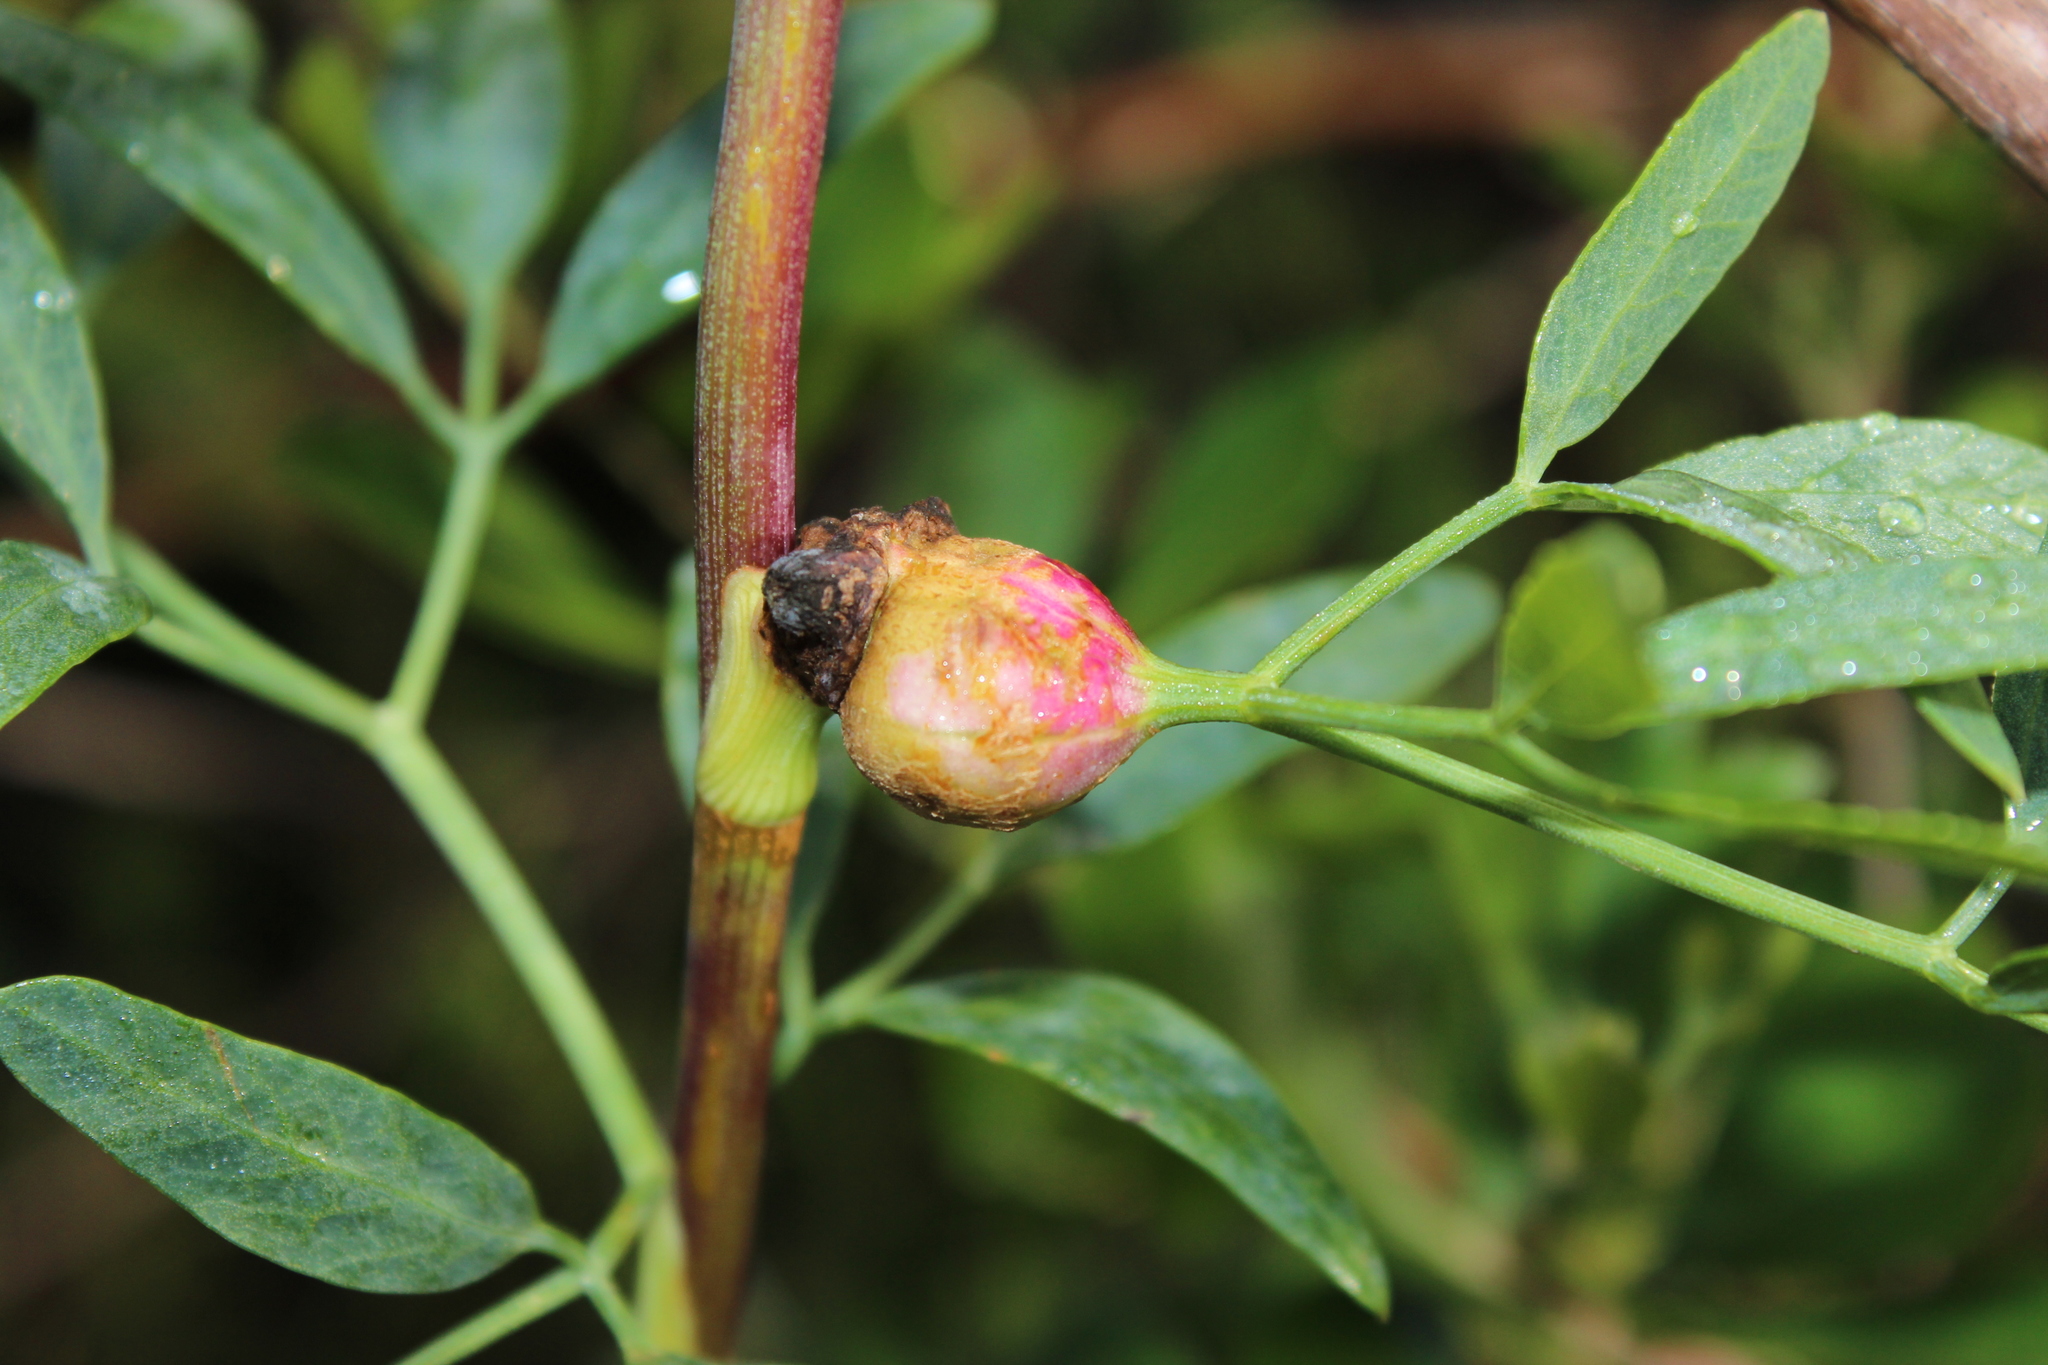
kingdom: Plantae
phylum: Tracheophyta
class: Magnoliopsida
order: Apiales
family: Apiaceae
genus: Notobubon
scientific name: Notobubon laevigatum
